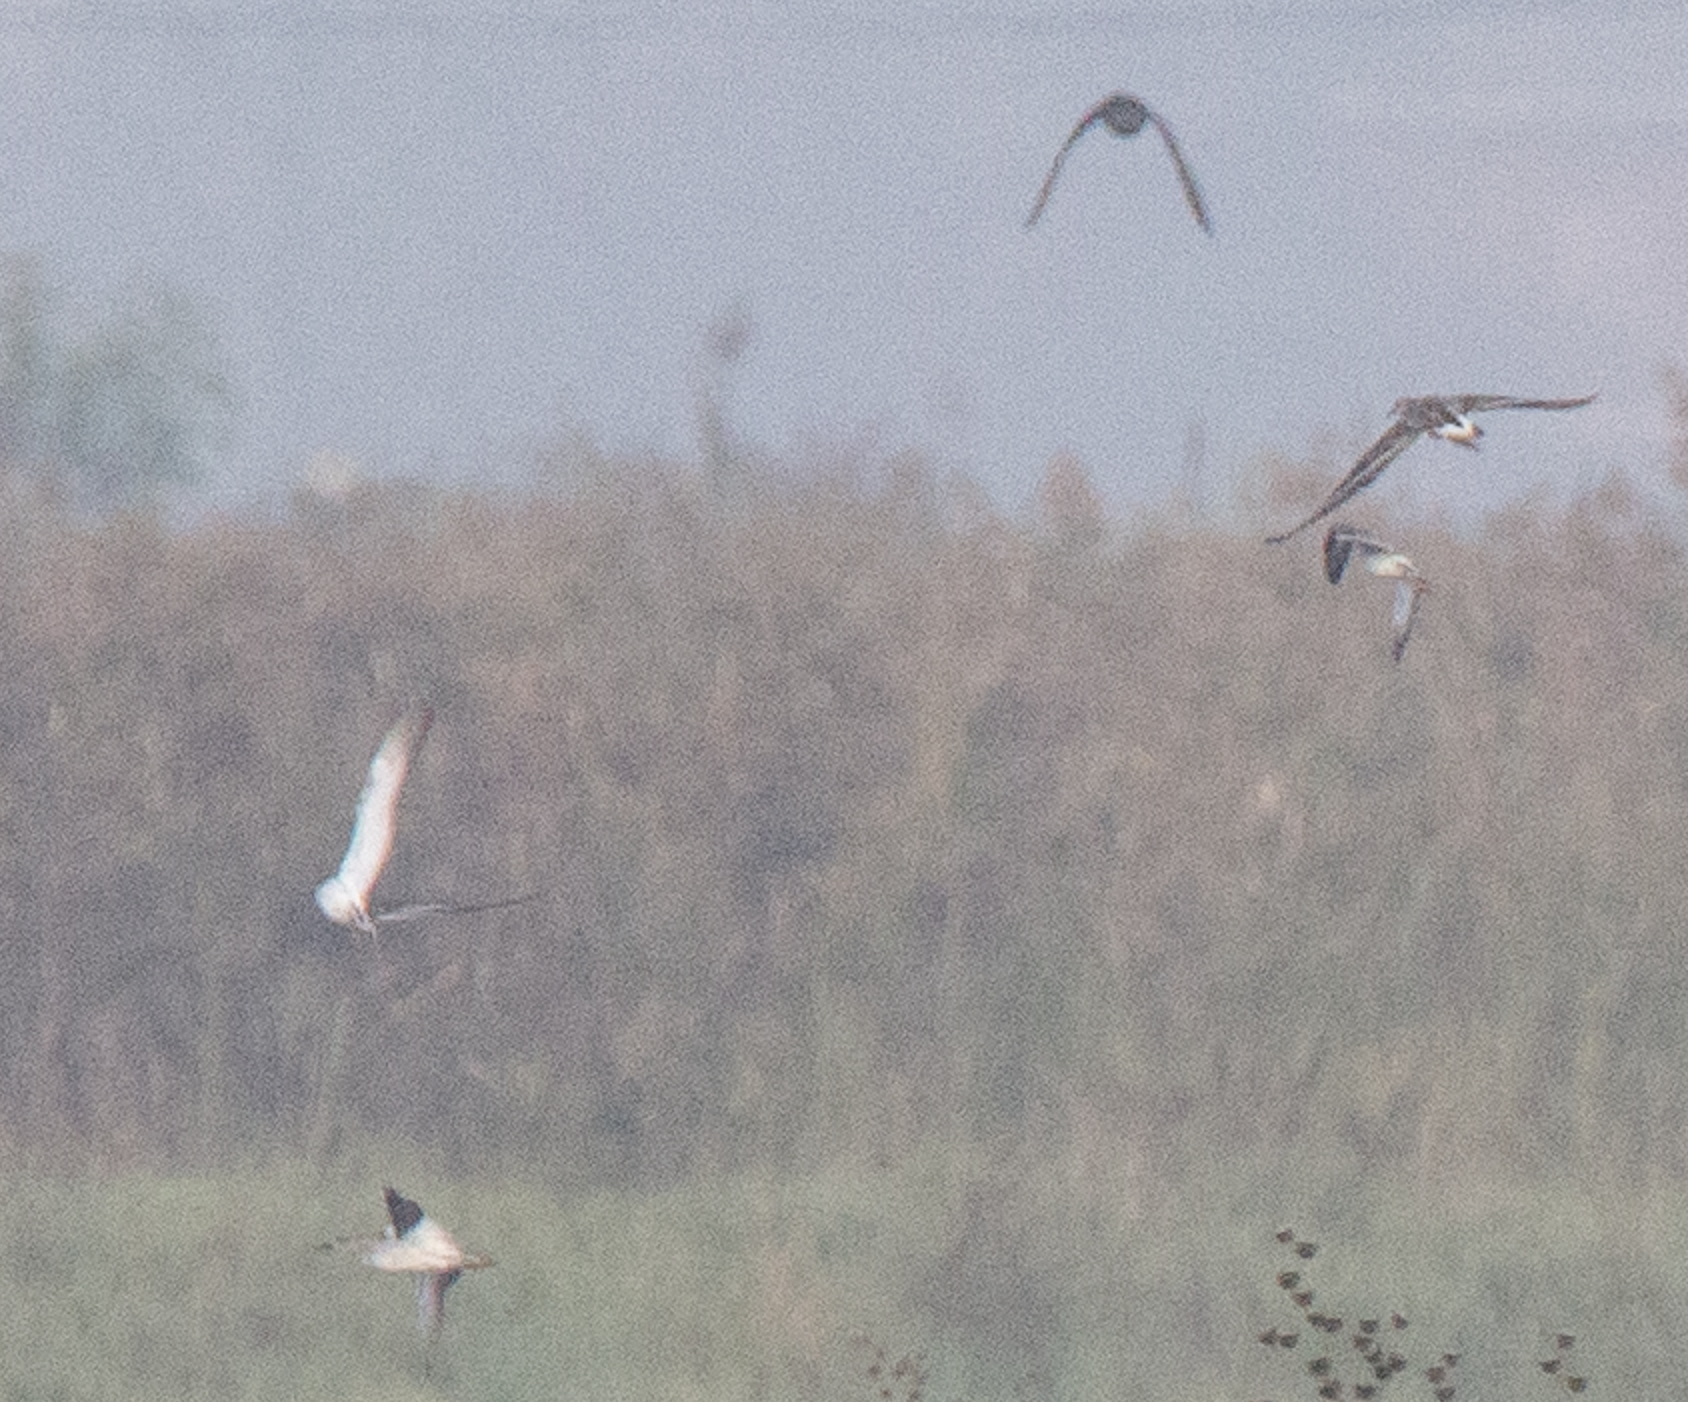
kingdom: Animalia
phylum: Chordata
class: Aves
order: Charadriiformes
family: Scolopacidae
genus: Calidris
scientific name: Calidris pugnax
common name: Ruff
